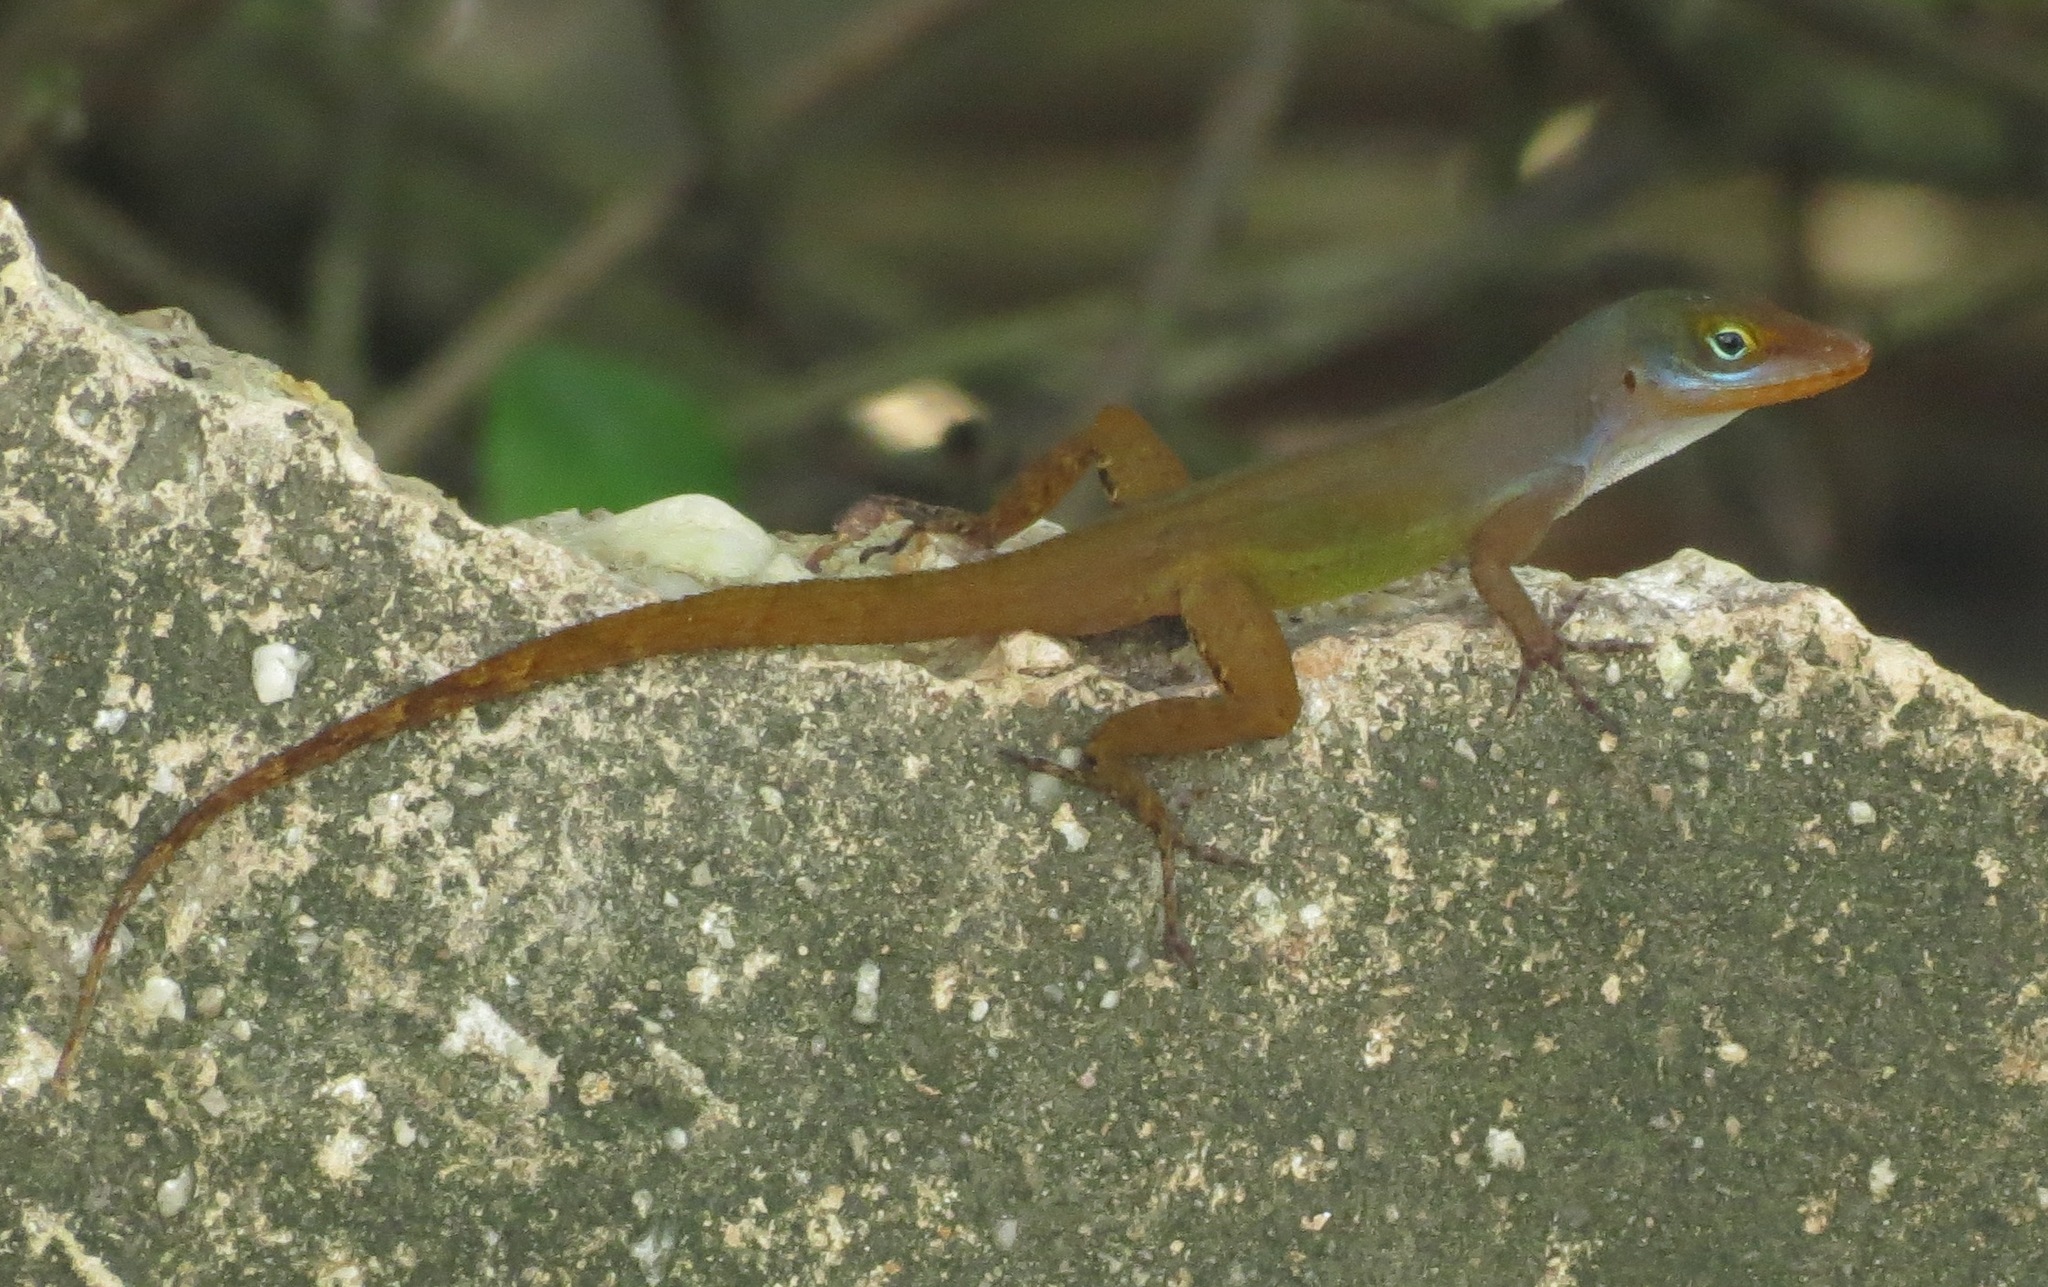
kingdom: Animalia
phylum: Chordata
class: Squamata
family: Dactyloidae
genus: Anolis
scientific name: Anolis wattsii
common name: Antigua bank bush anole
